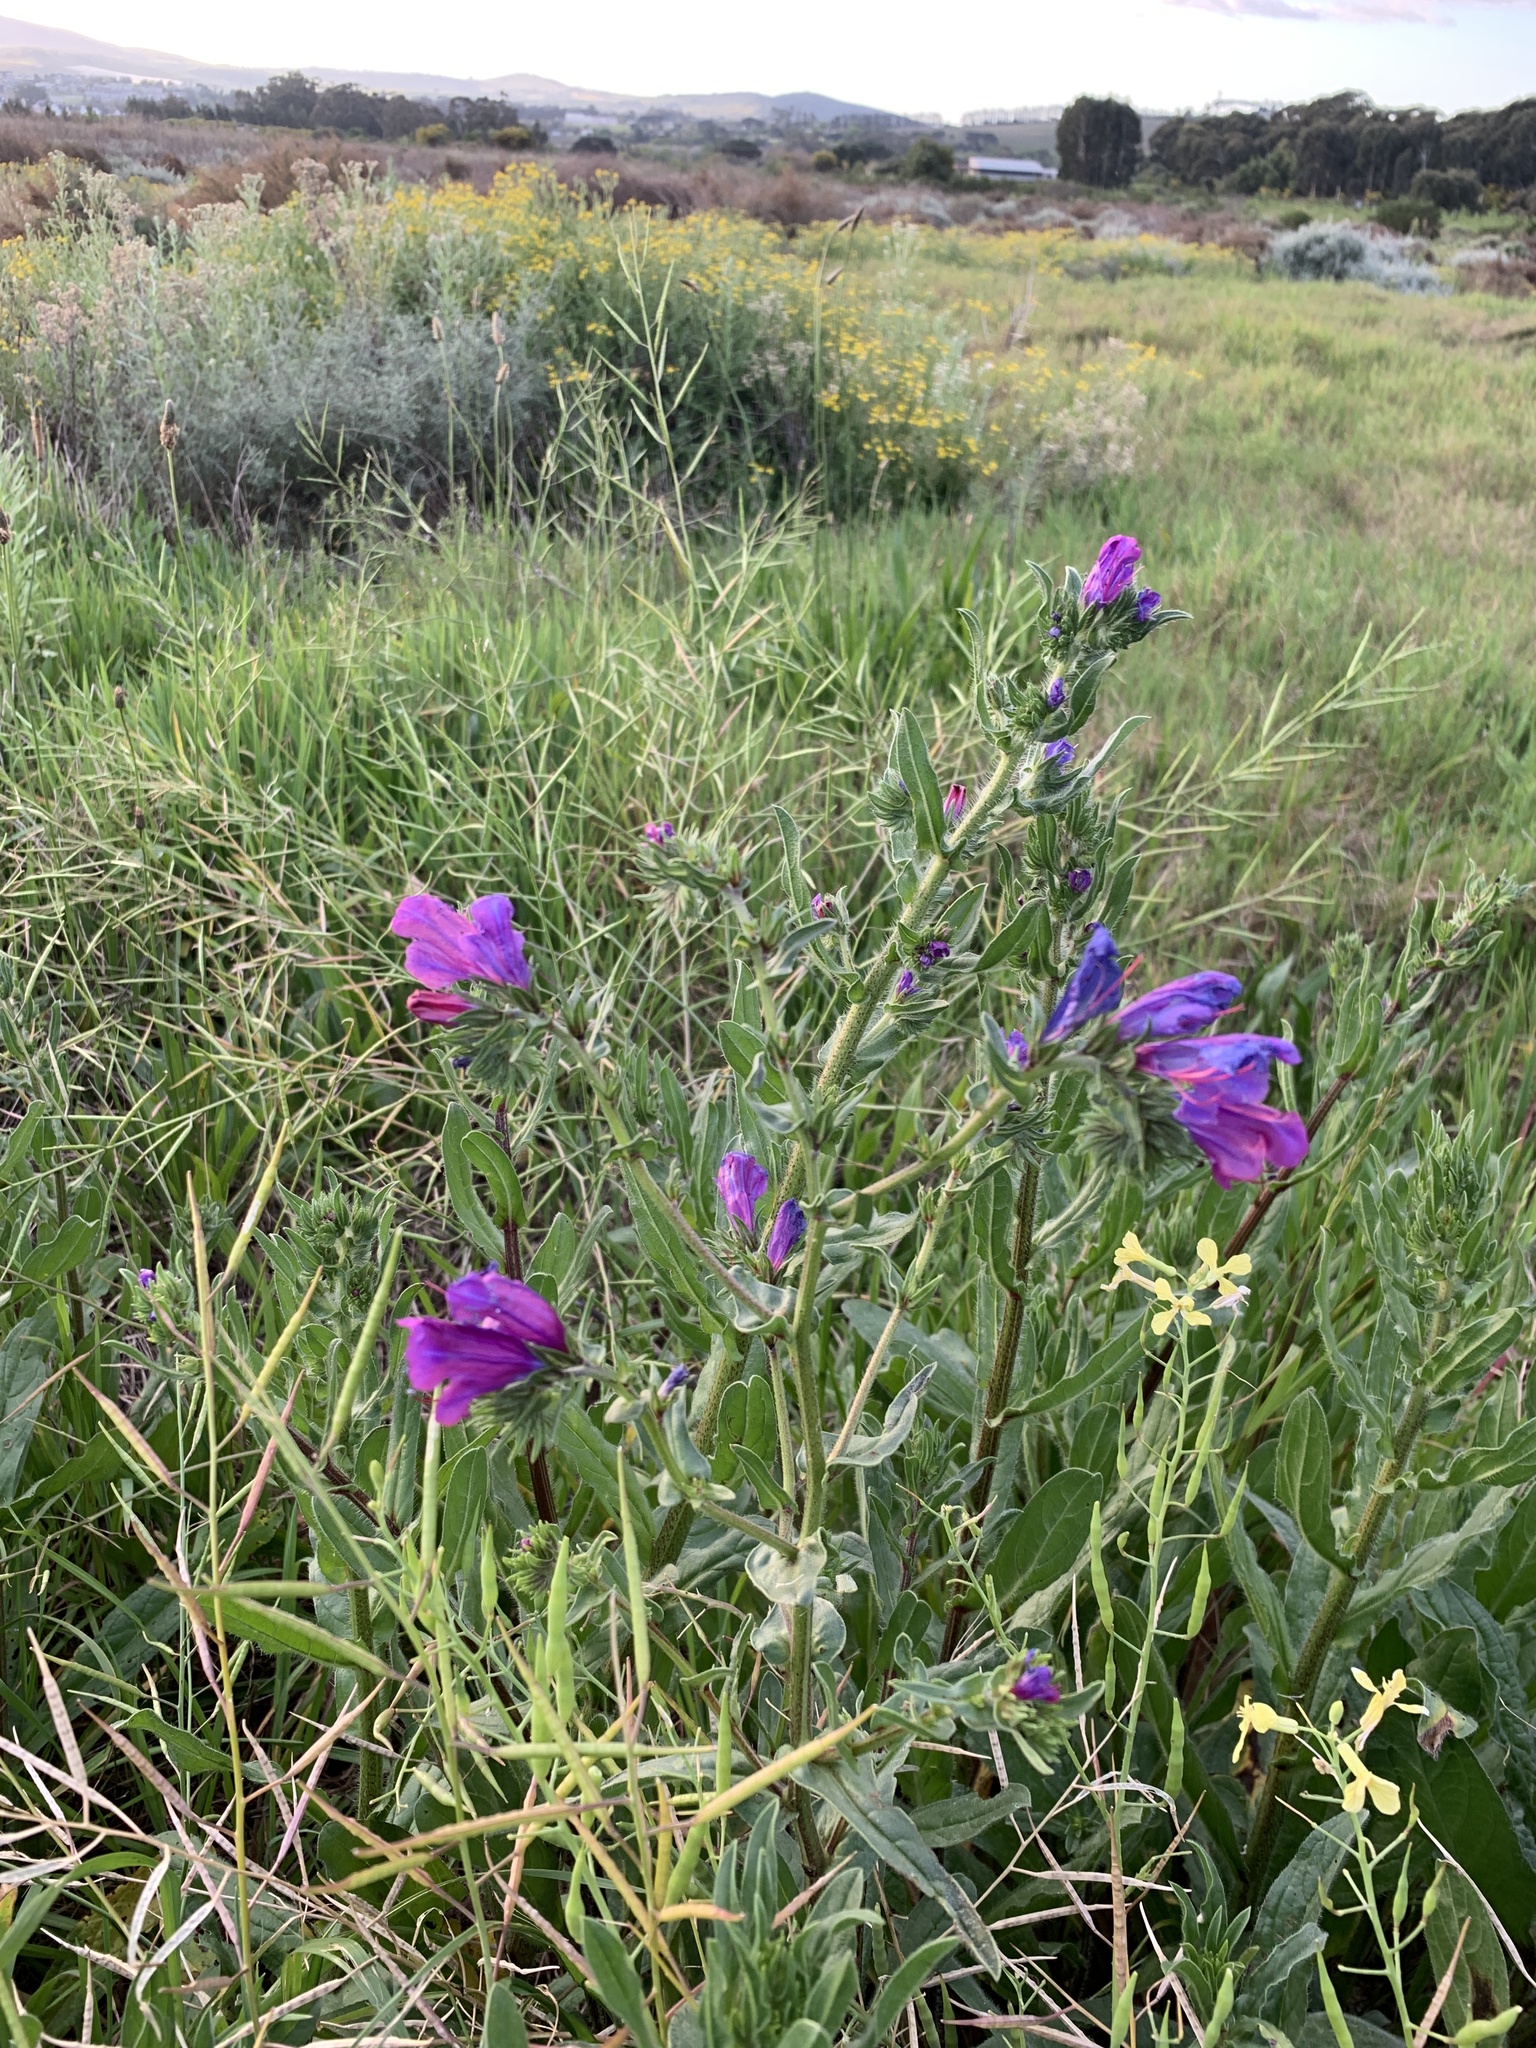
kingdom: Plantae
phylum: Tracheophyta
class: Magnoliopsida
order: Boraginales
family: Boraginaceae
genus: Echium
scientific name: Echium plantagineum
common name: Purple viper's-bugloss
